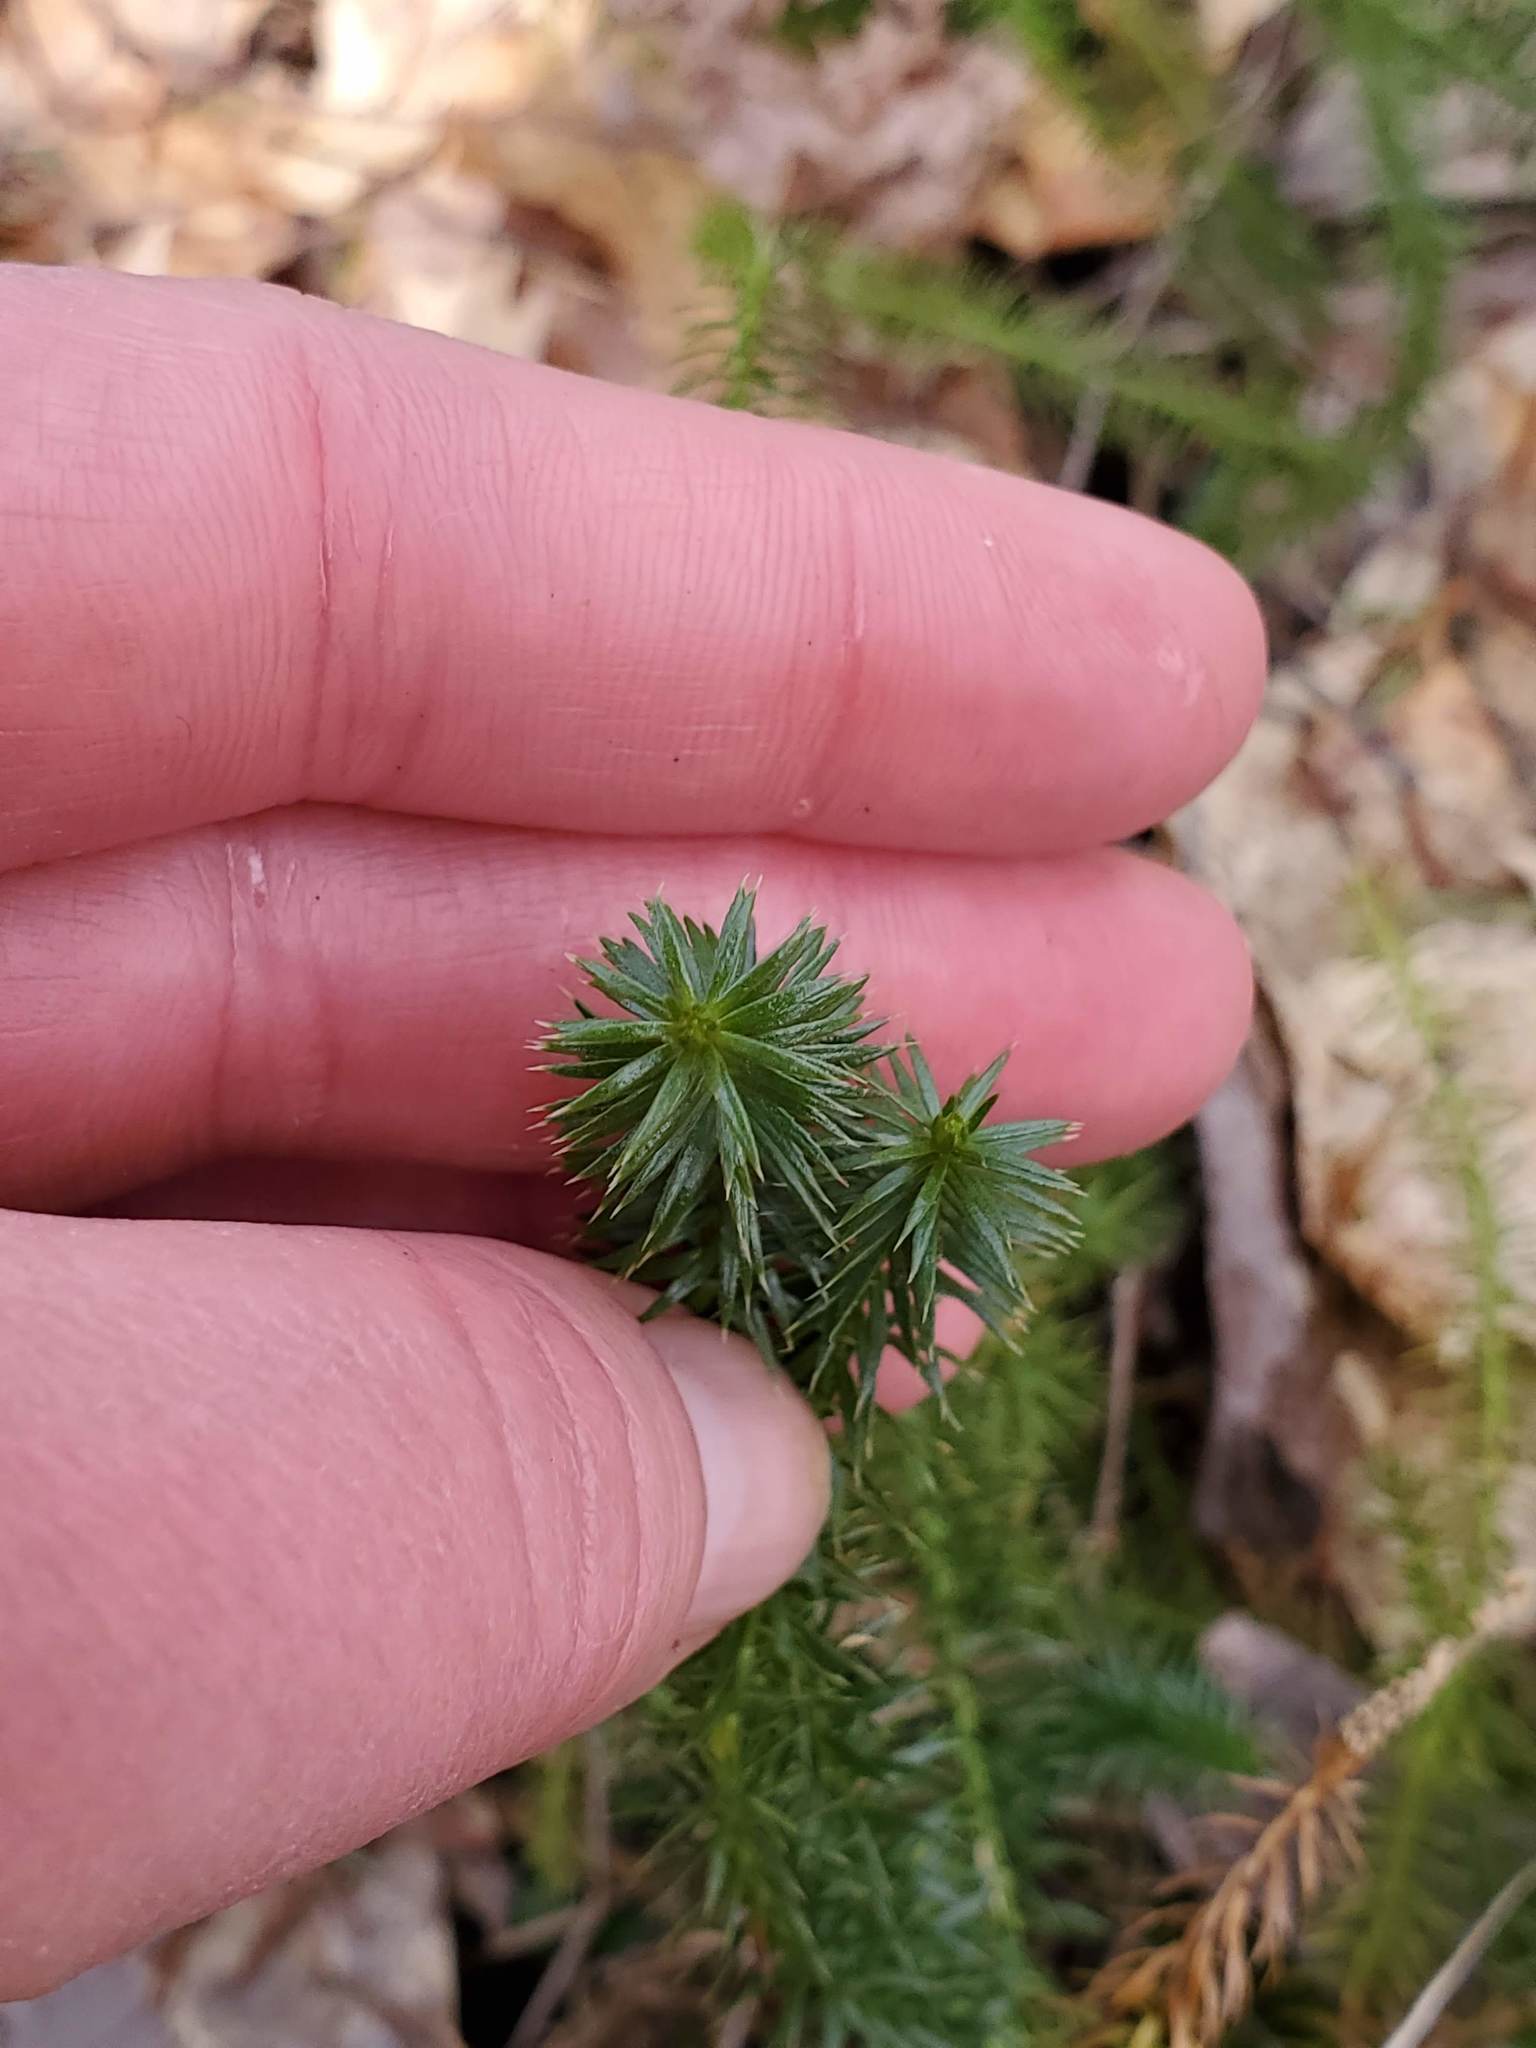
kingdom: Plantae
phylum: Tracheophyta
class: Lycopodiopsida
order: Lycopodiales
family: Lycopodiaceae
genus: Spinulum
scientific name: Spinulum annotinum
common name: Interrupted club-moss
